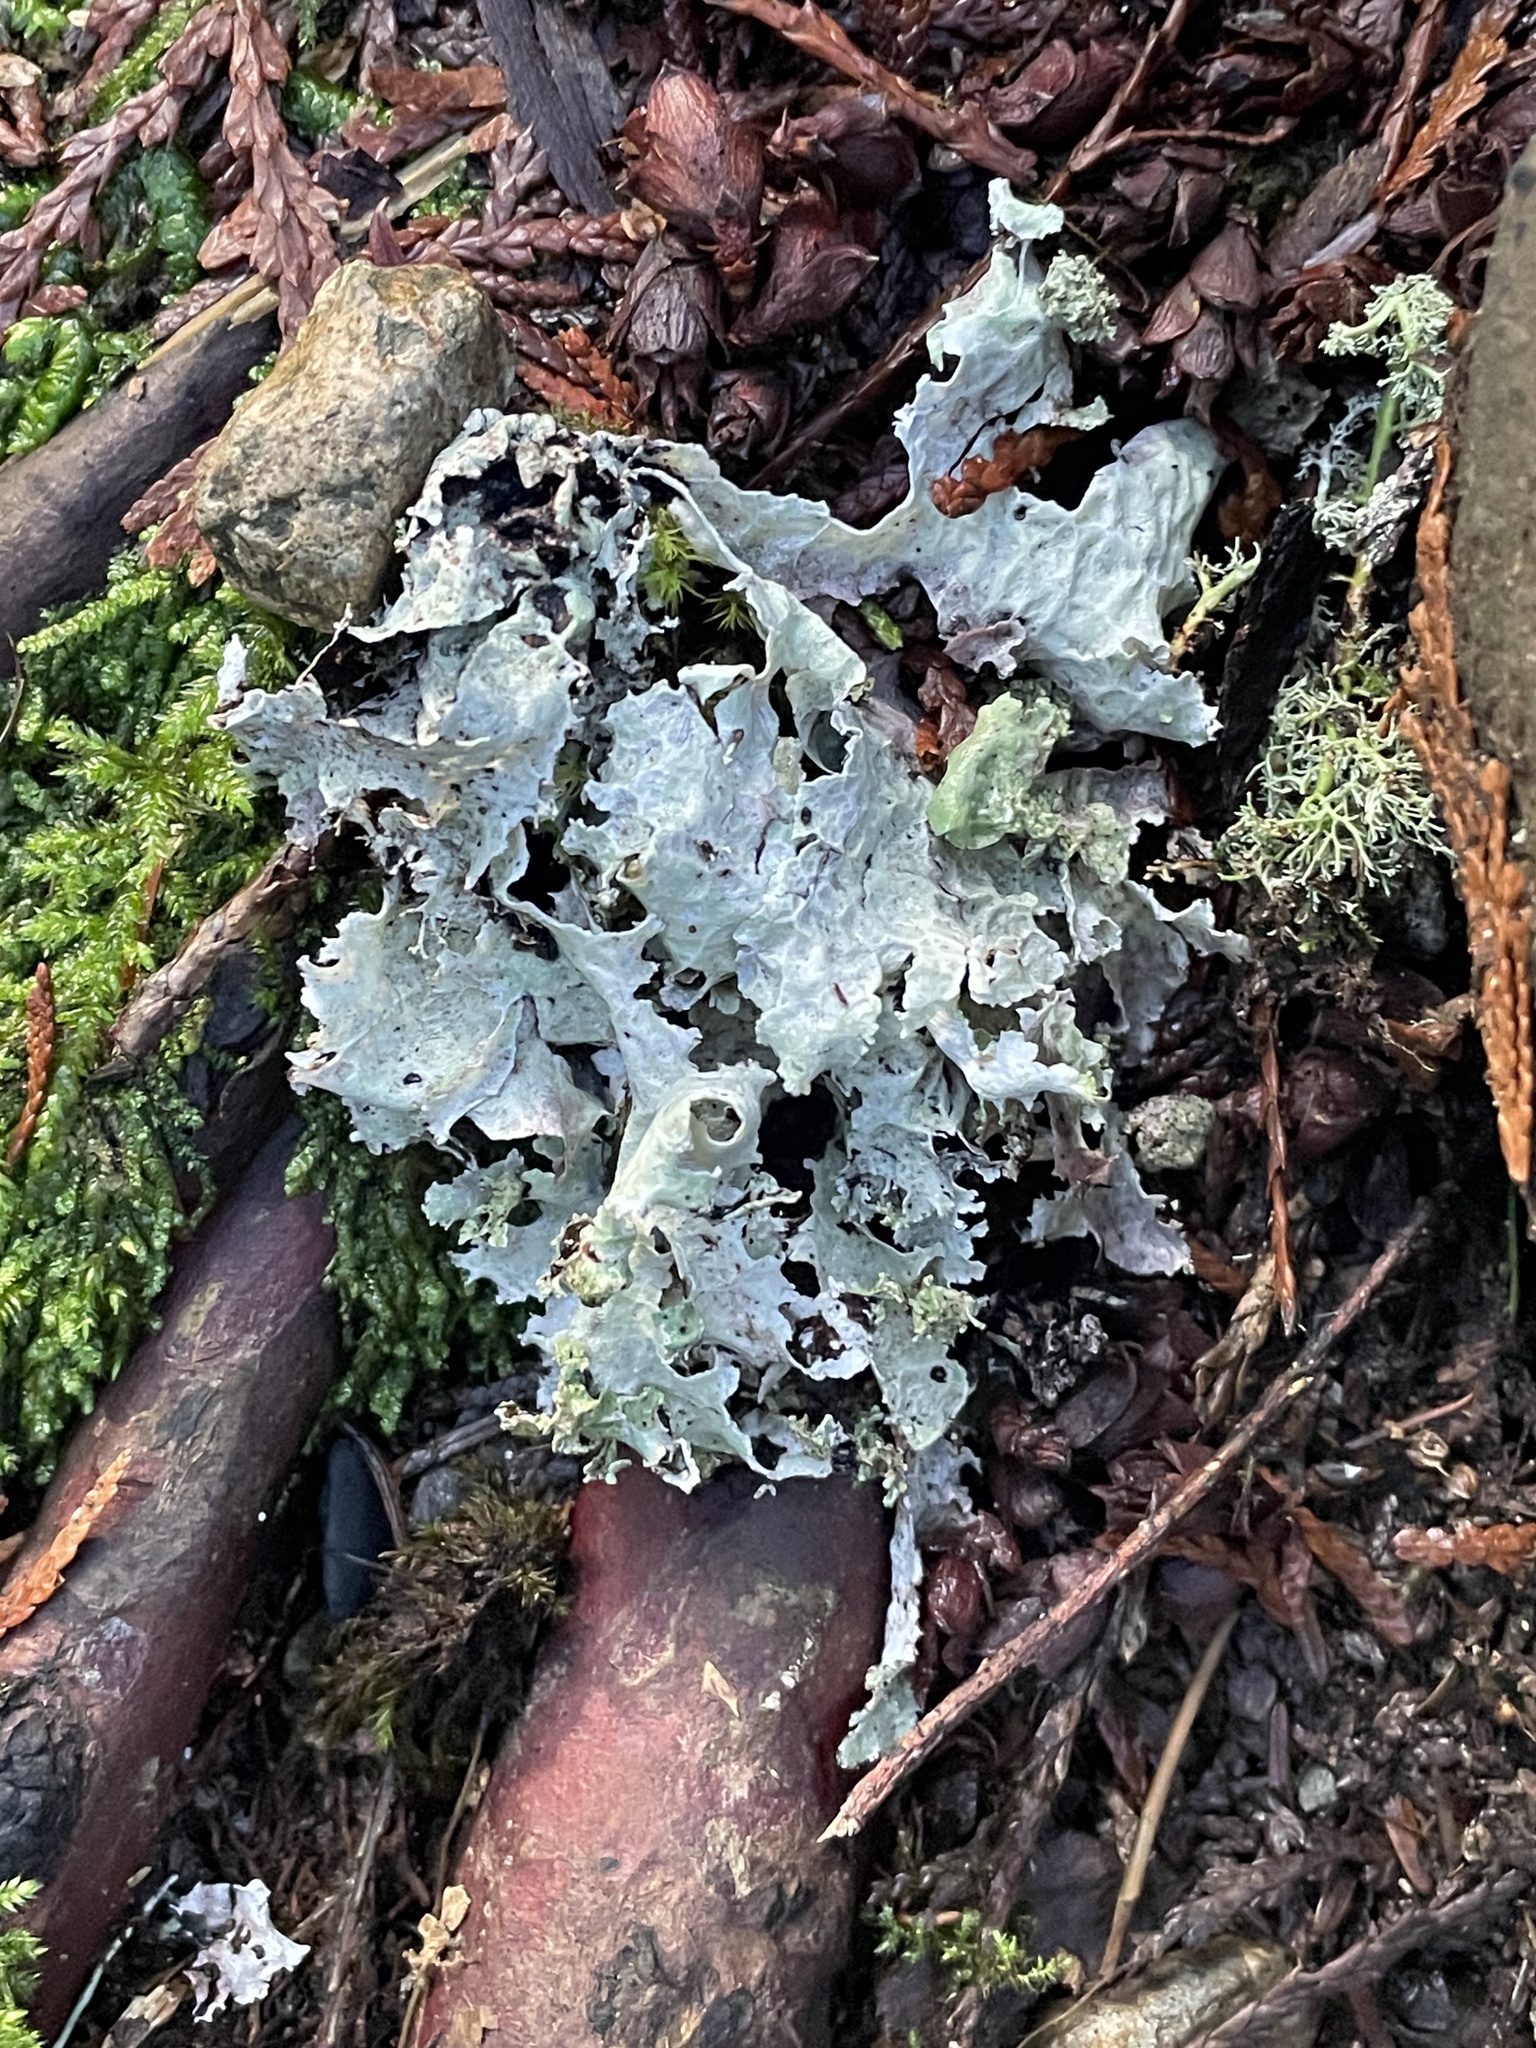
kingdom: Fungi
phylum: Ascomycota
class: Lecanoromycetes
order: Lecanorales
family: Parmeliaceae
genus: Platismatia
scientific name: Platismatia glauca
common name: Varied rag lichen
